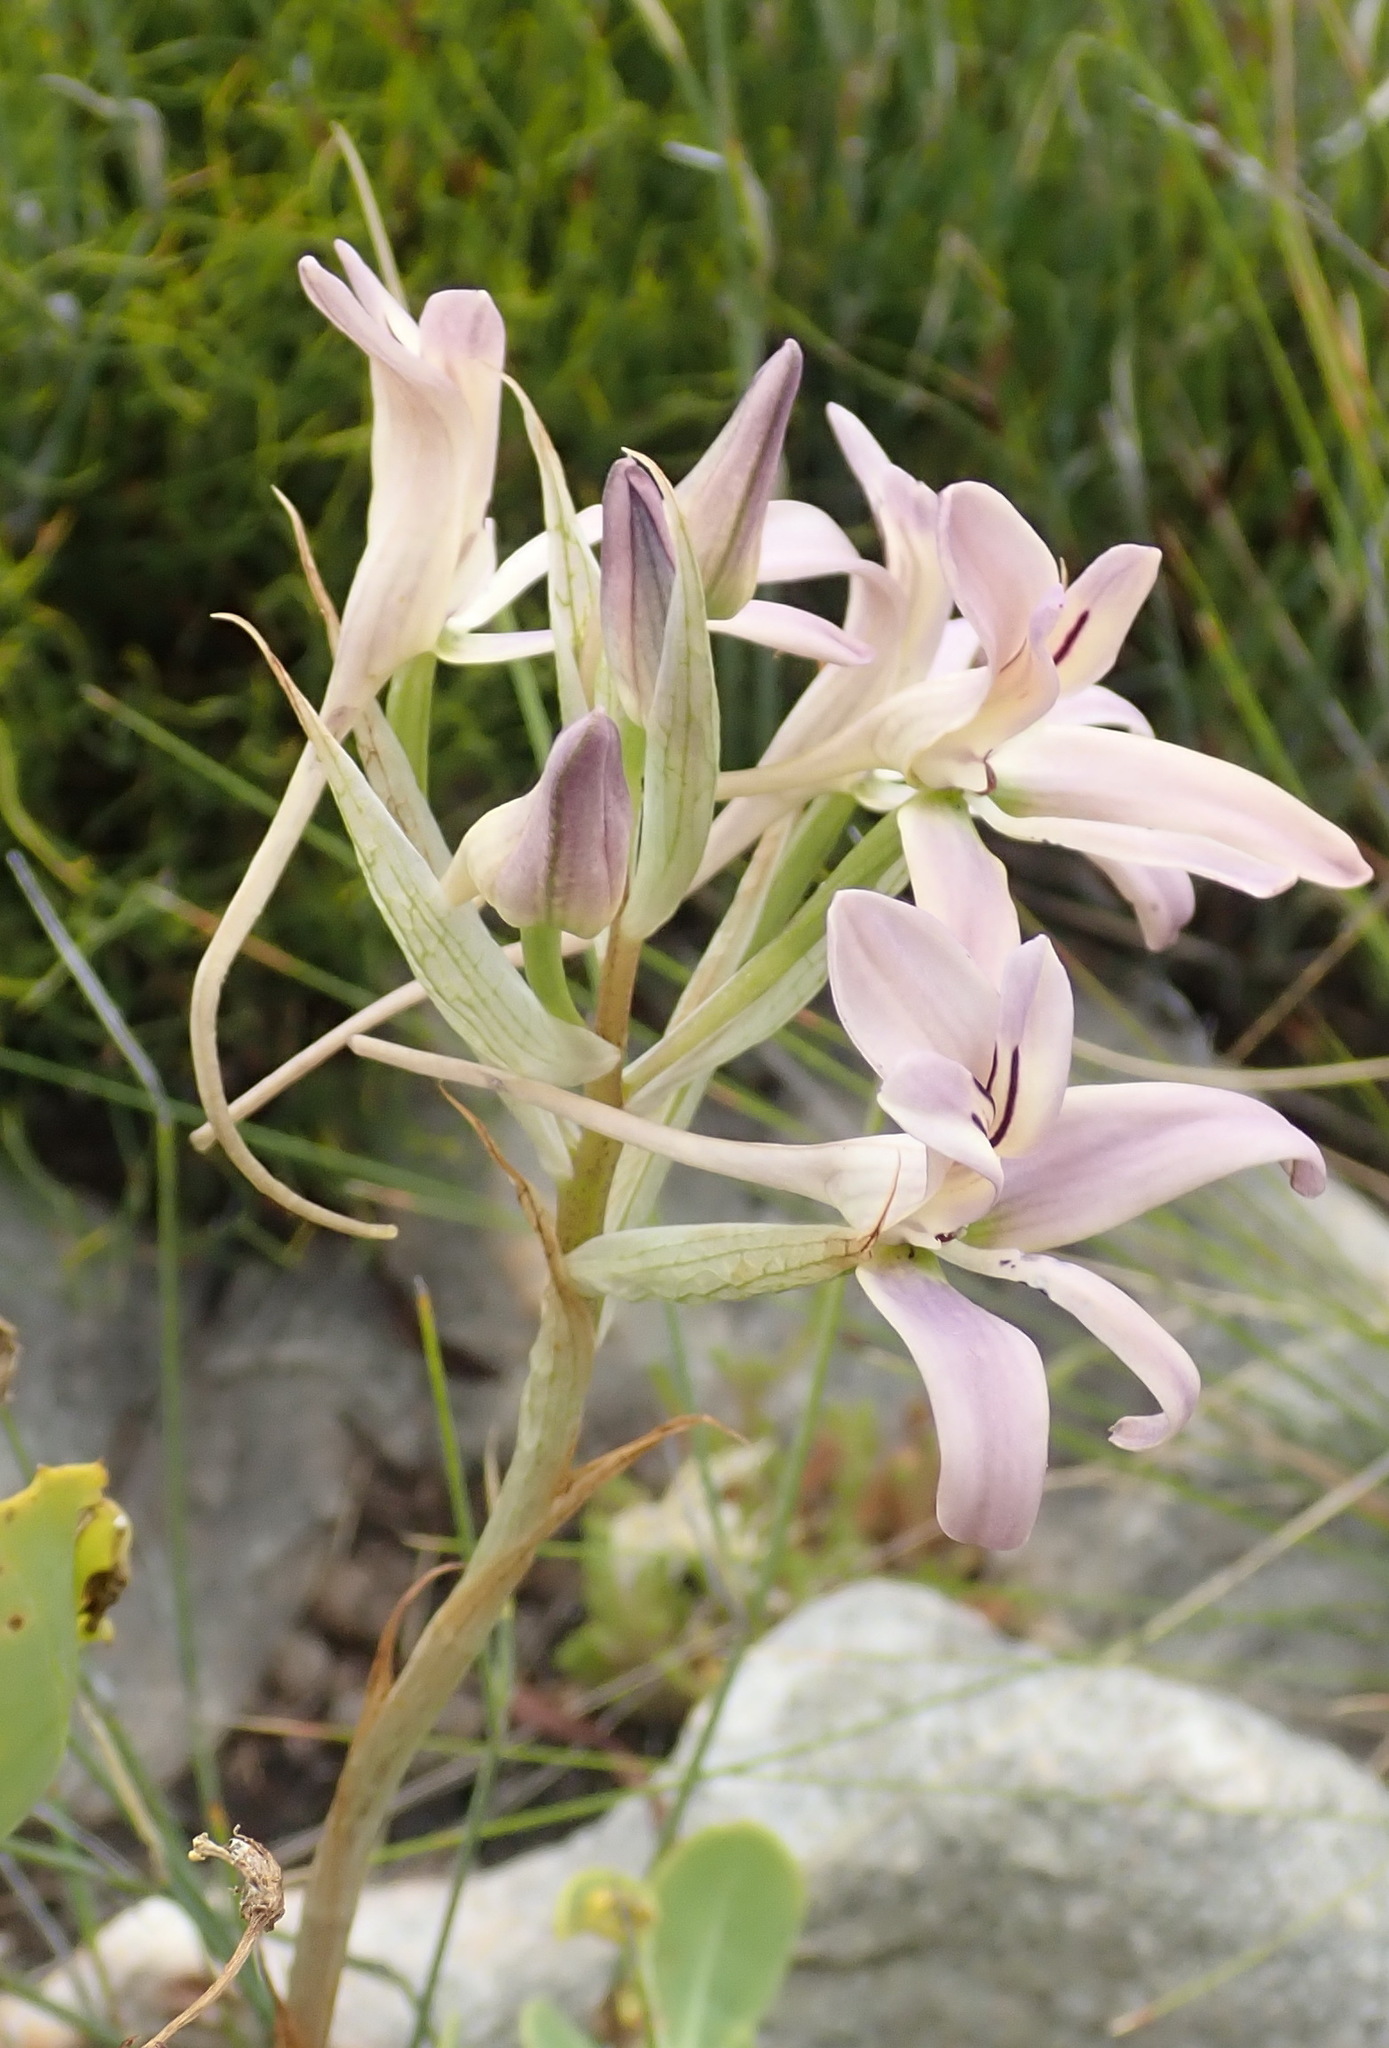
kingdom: Plantae
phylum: Tracheophyta
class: Liliopsida
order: Asparagales
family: Orchidaceae
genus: Disa
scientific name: Disa harveyana
